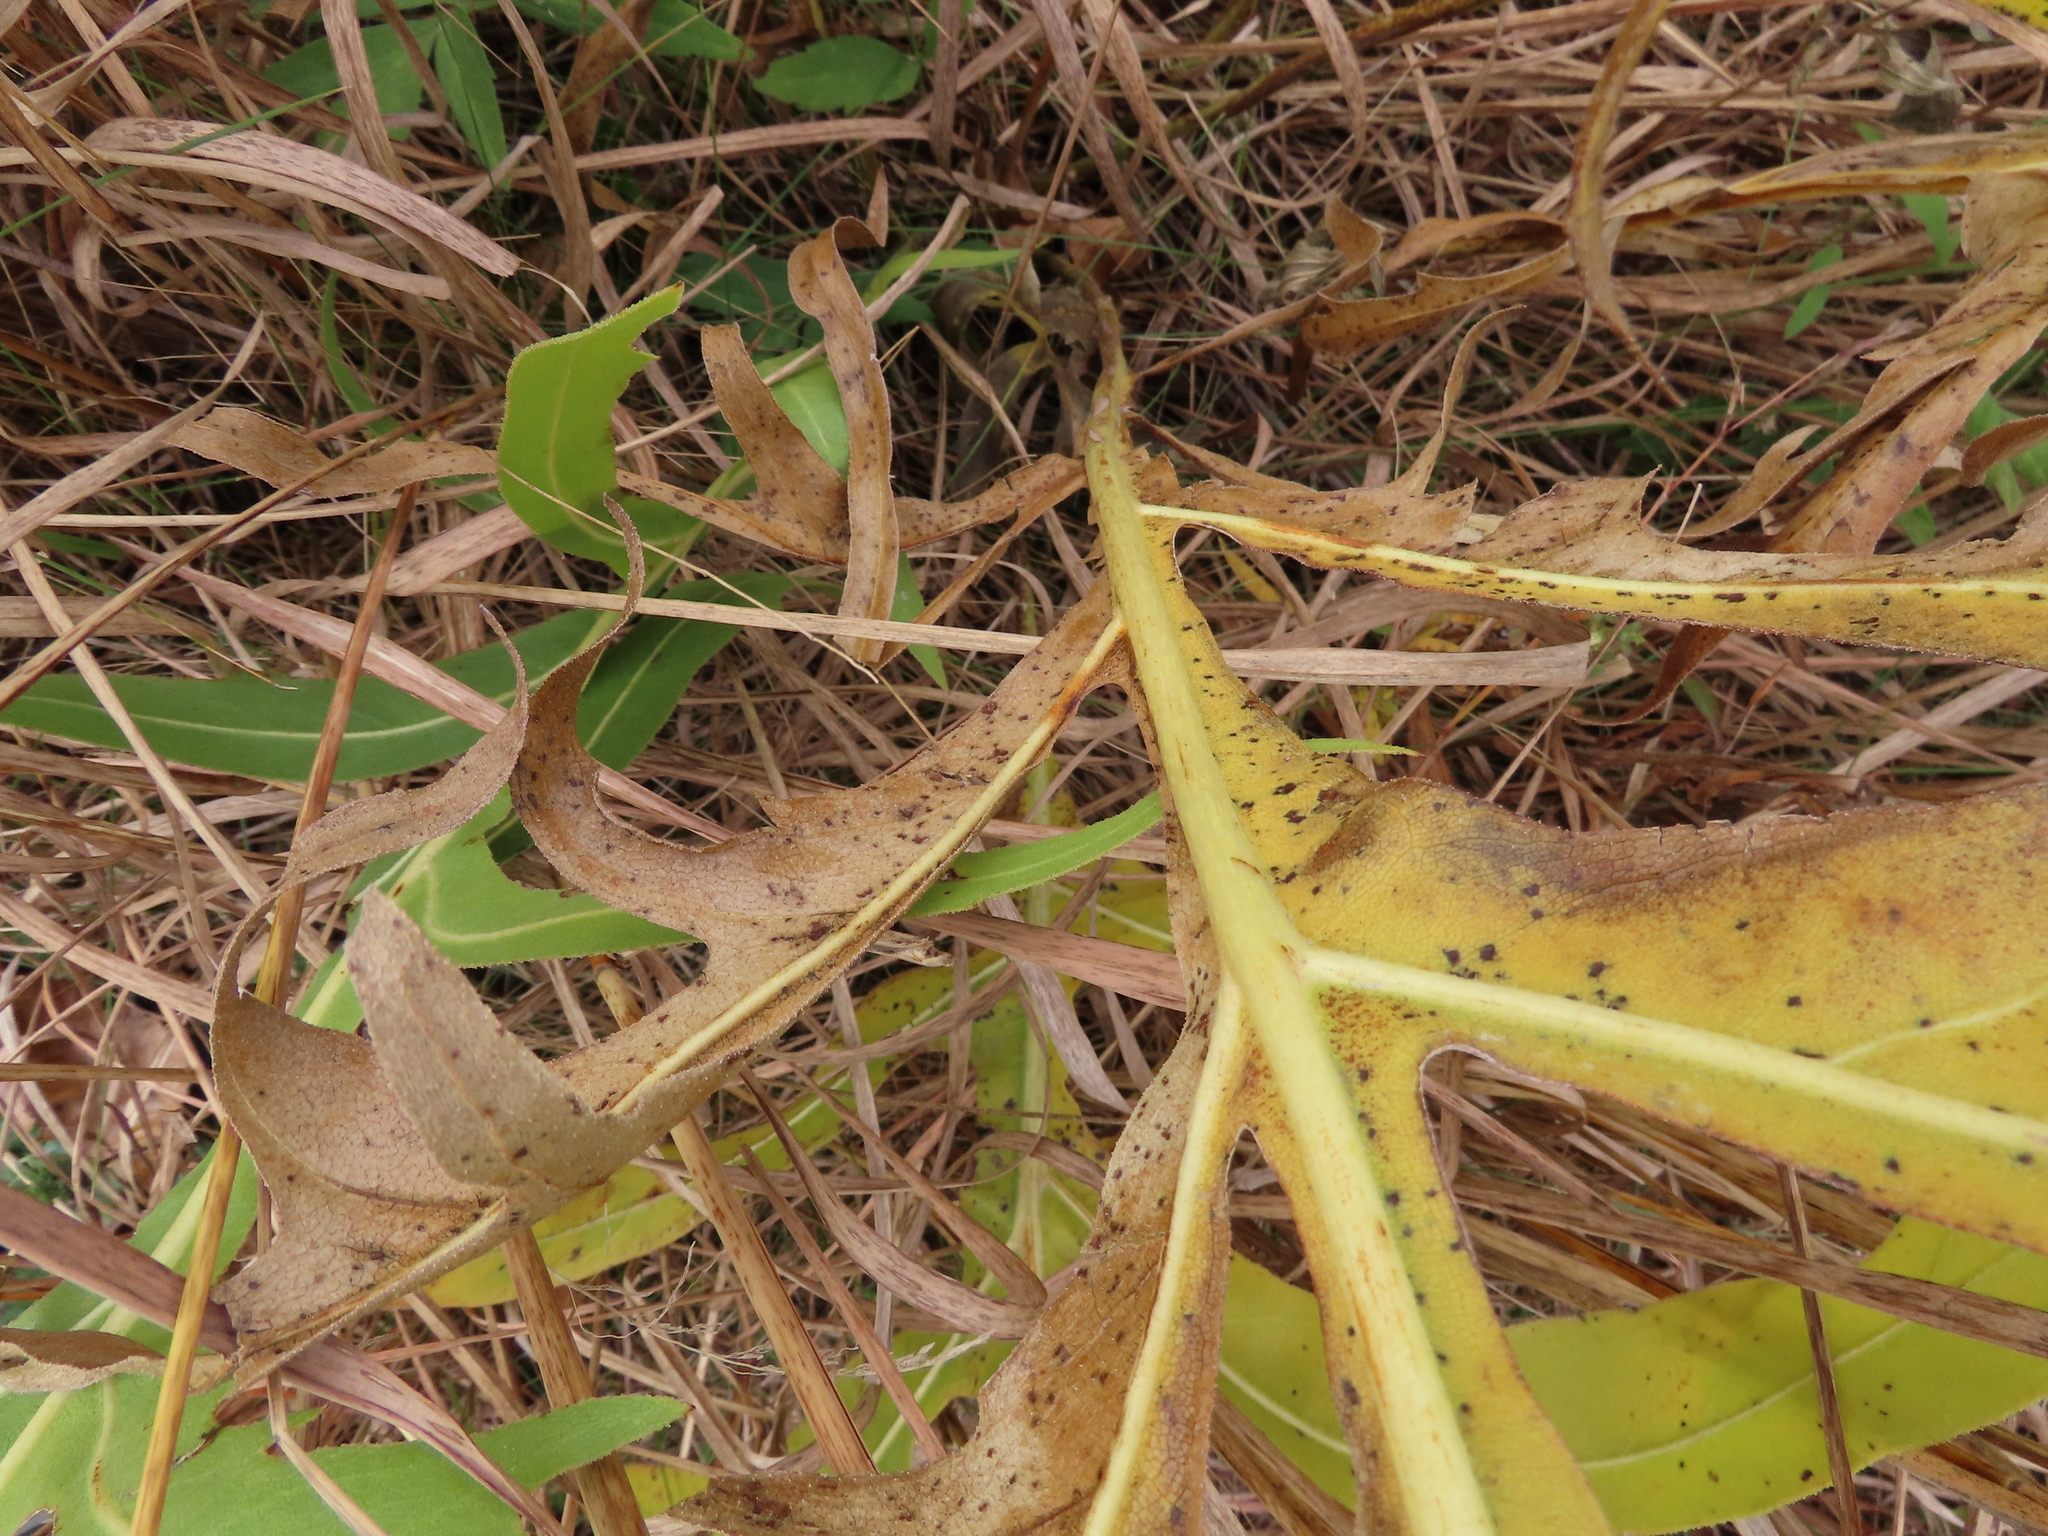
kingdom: Plantae
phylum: Tracheophyta
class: Magnoliopsida
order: Asterales
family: Asteraceae
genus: Silphium
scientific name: Silphium laciniatum
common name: Polarplant
